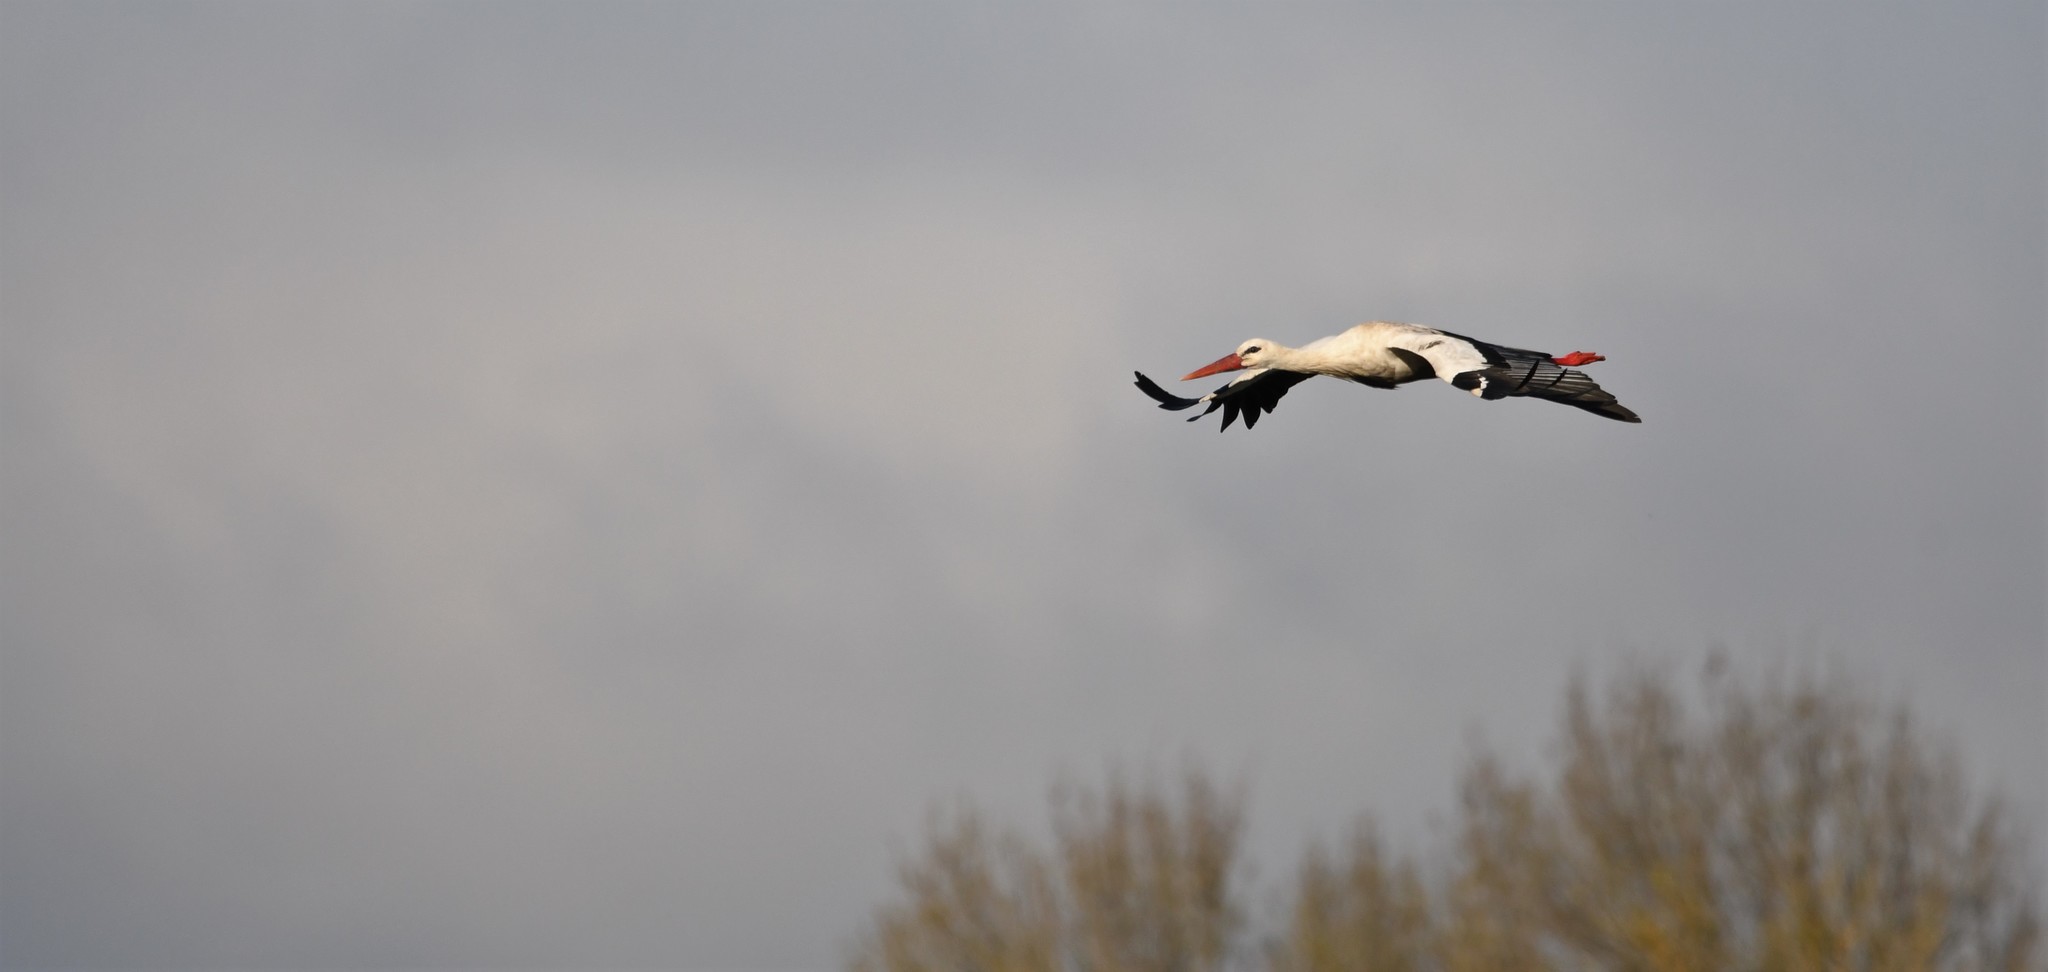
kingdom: Animalia
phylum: Chordata
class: Aves
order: Ciconiiformes
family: Ciconiidae
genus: Ciconia
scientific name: Ciconia ciconia
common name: White stork
